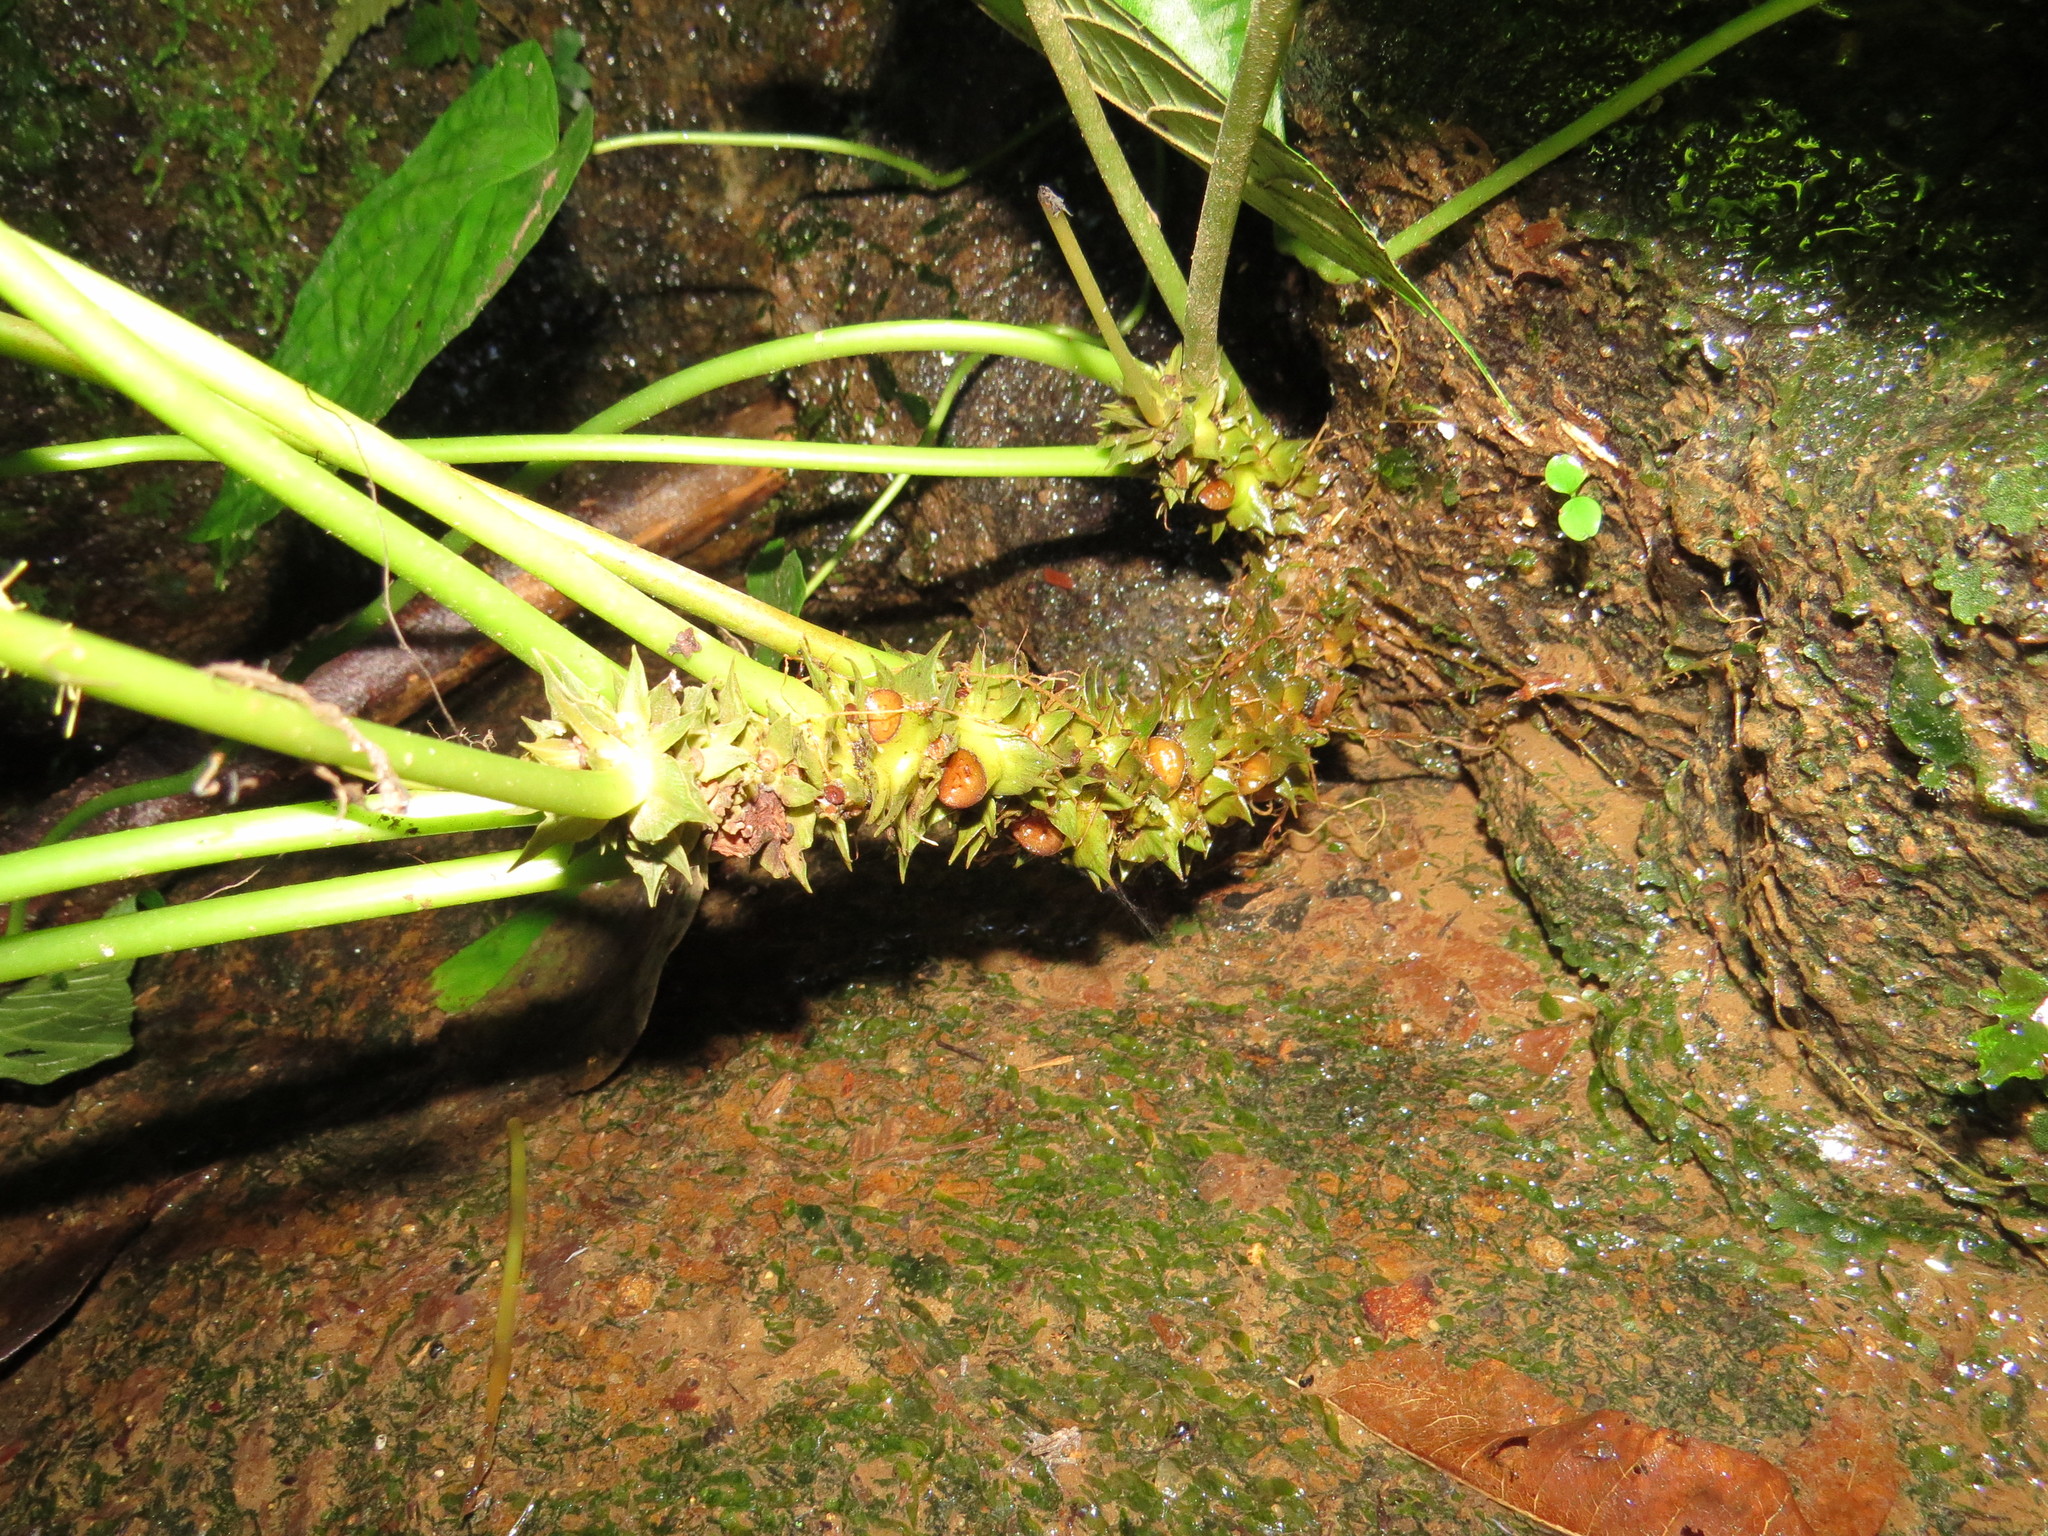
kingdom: Plantae
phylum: Tracheophyta
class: Magnoliopsida
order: Rosales
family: Moraceae
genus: Dorstenia
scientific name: Dorstenia ramosa
